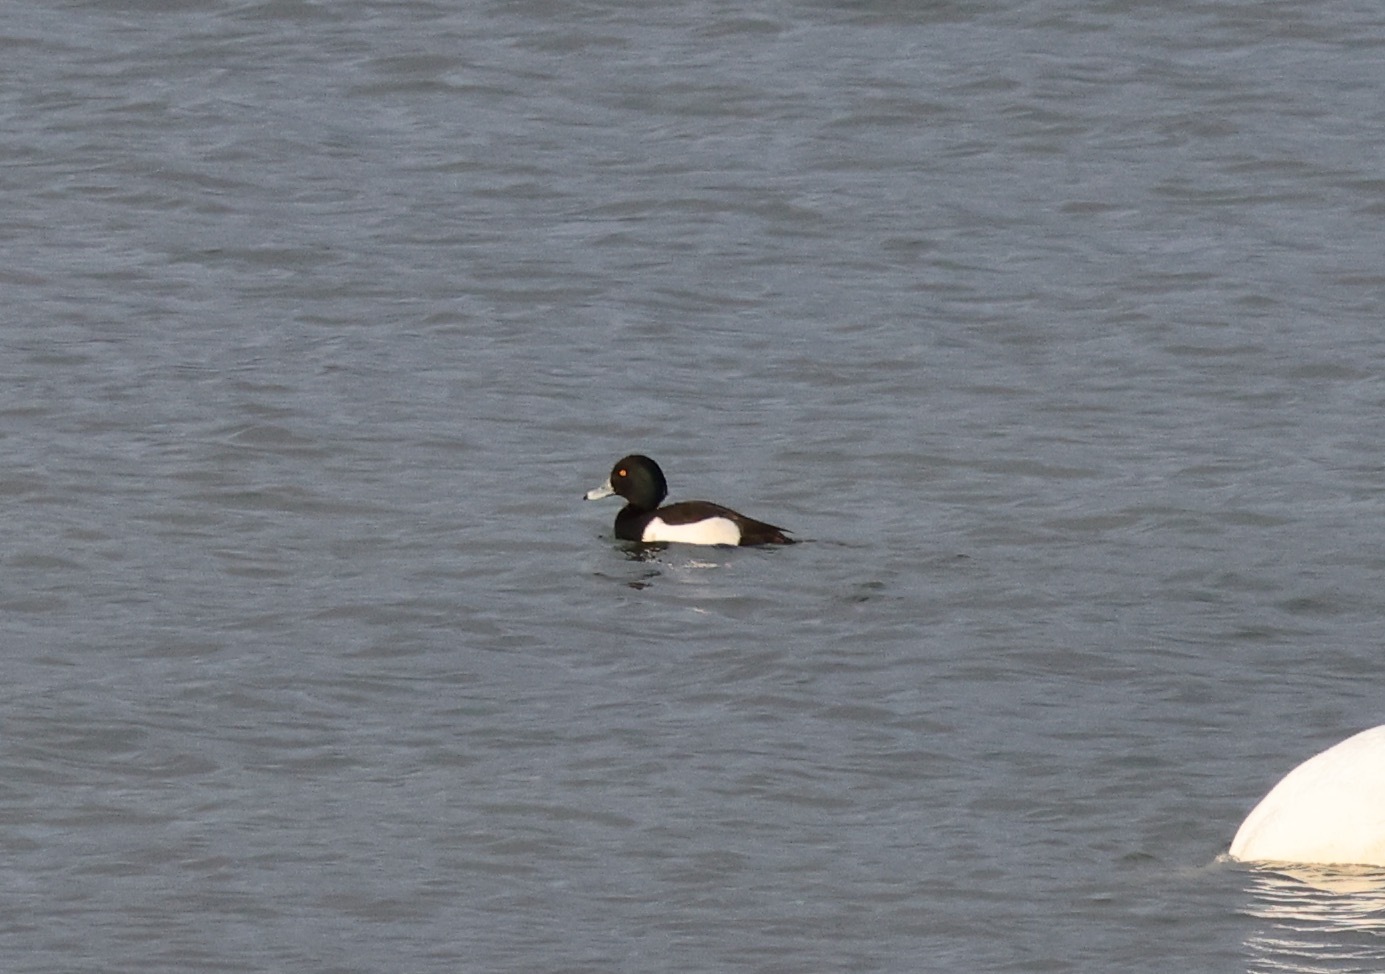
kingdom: Animalia
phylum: Chordata
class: Aves
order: Anseriformes
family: Anatidae
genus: Aythya
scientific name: Aythya fuligula
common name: Tufted duck
